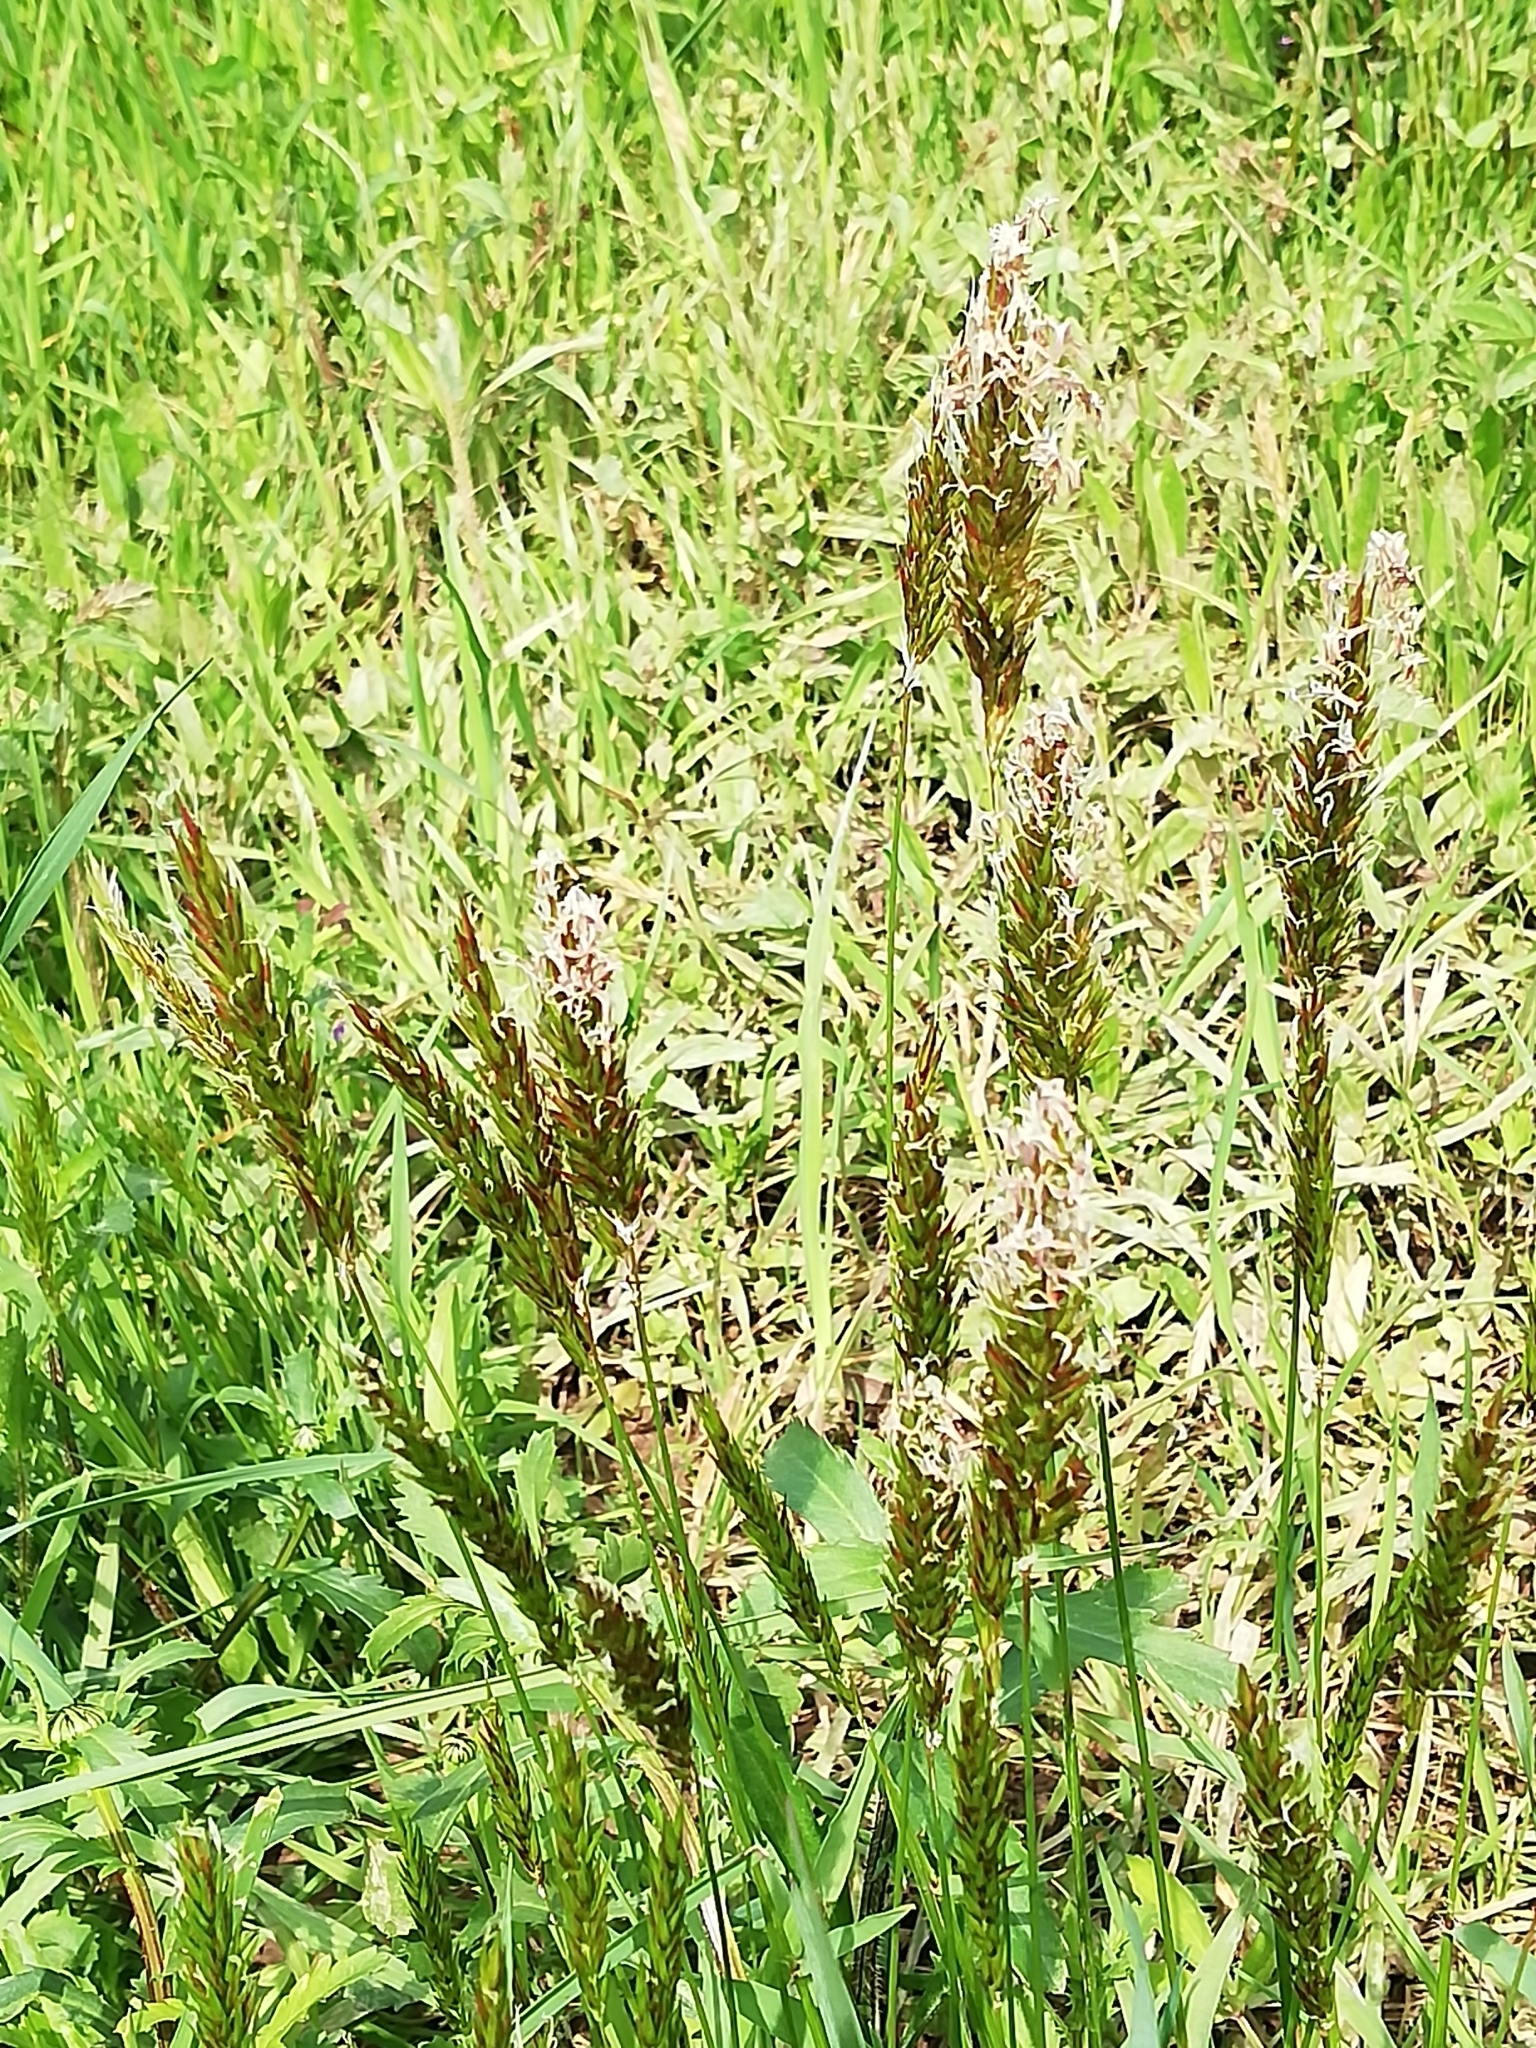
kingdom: Plantae
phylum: Tracheophyta
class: Liliopsida
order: Poales
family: Poaceae
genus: Anthoxanthum
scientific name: Anthoxanthum odoratum
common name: Sweet vernalgrass
